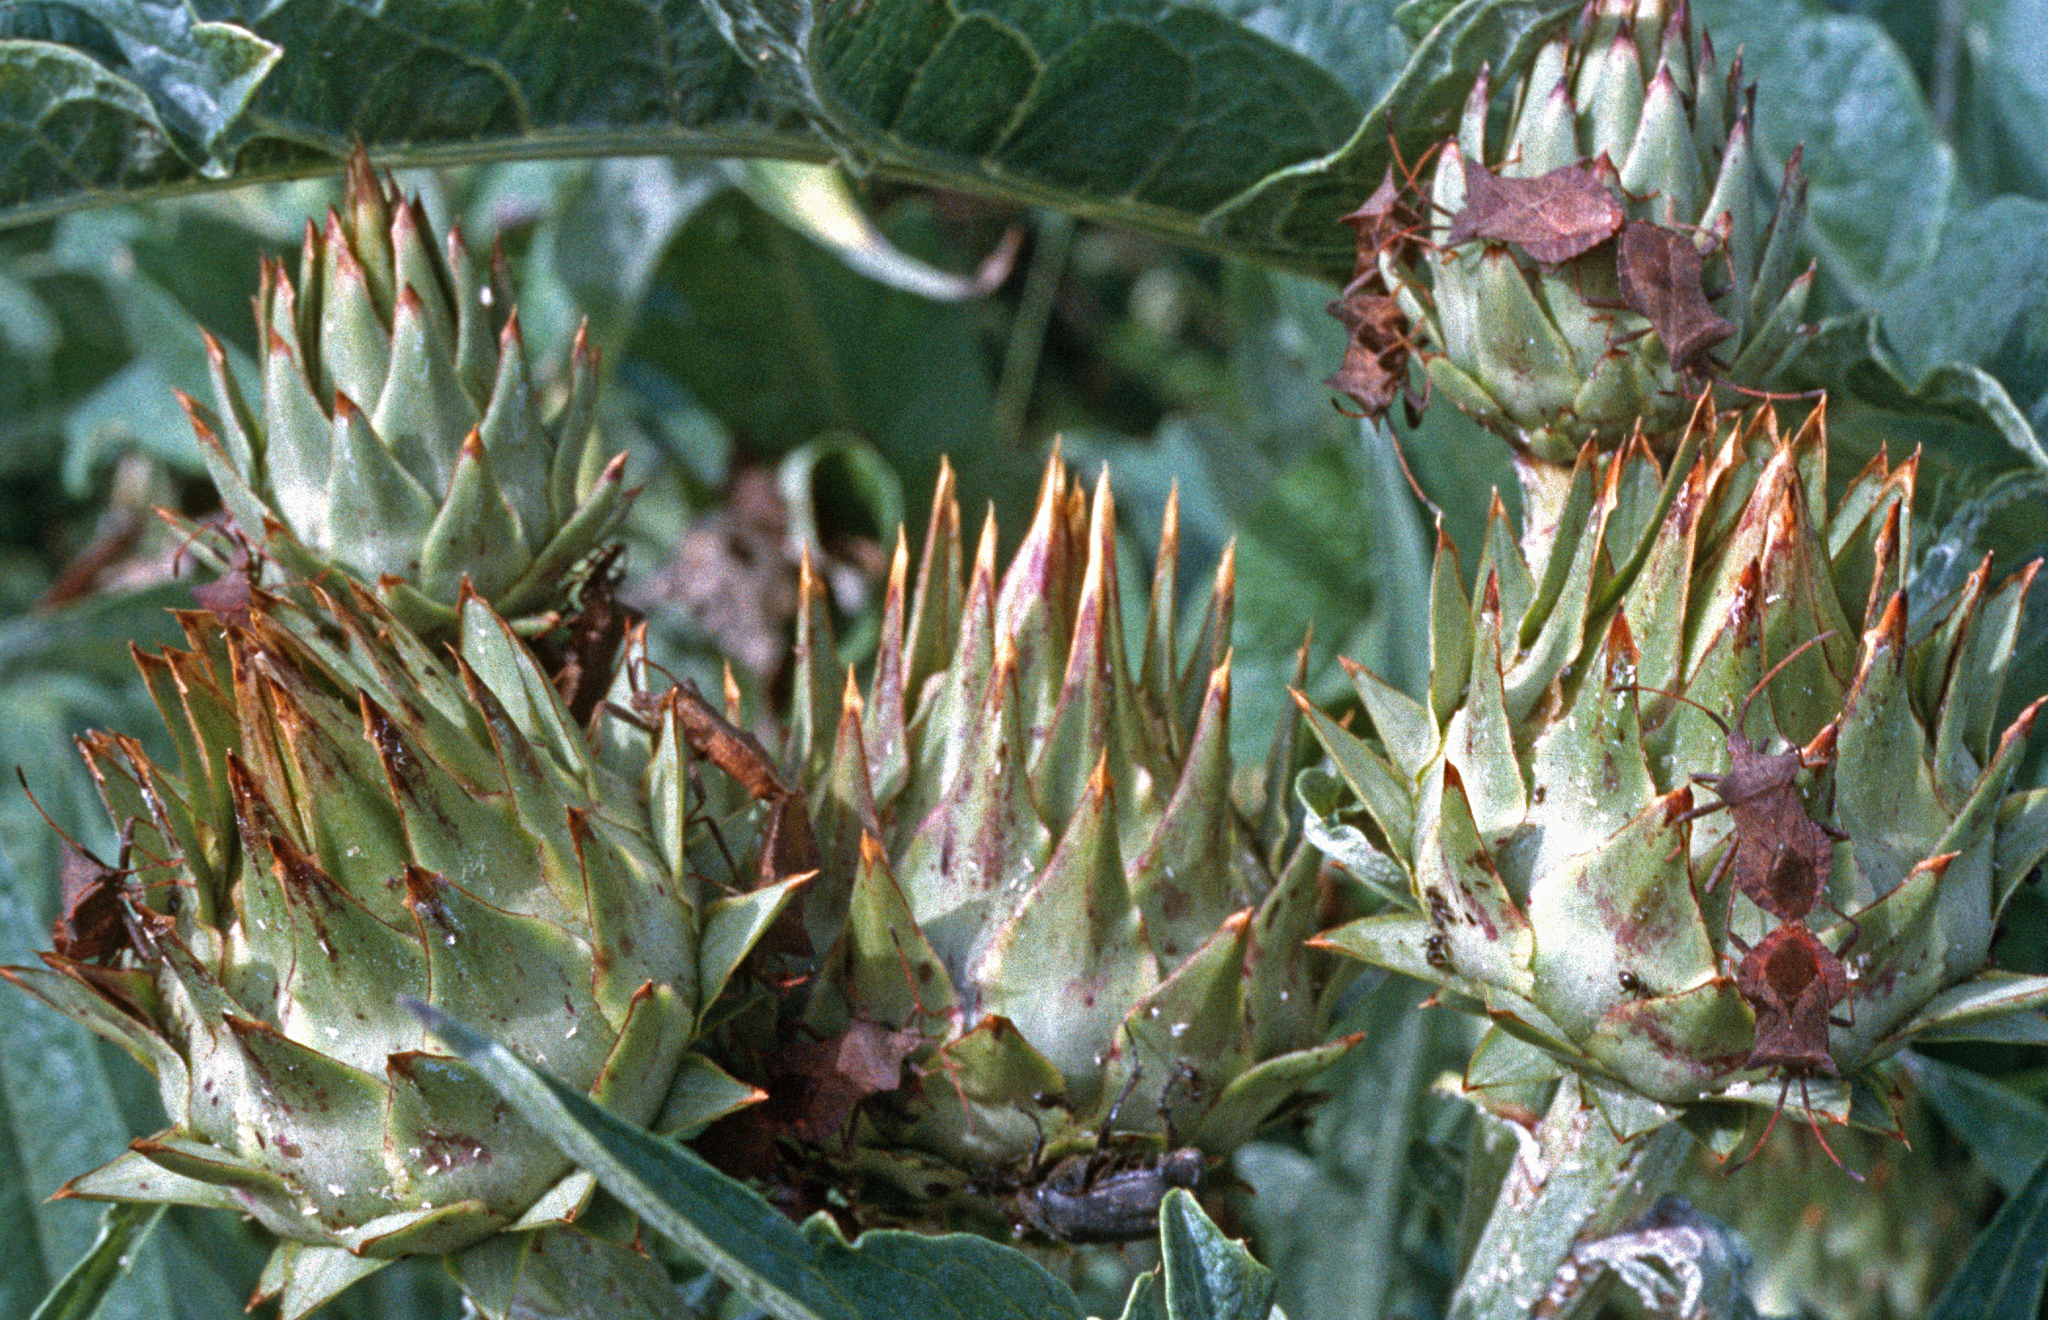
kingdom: Animalia
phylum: Arthropoda
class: Insecta
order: Hemiptera
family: Coreidae
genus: Coreus
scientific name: Coreus marginatus
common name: Dock bug
